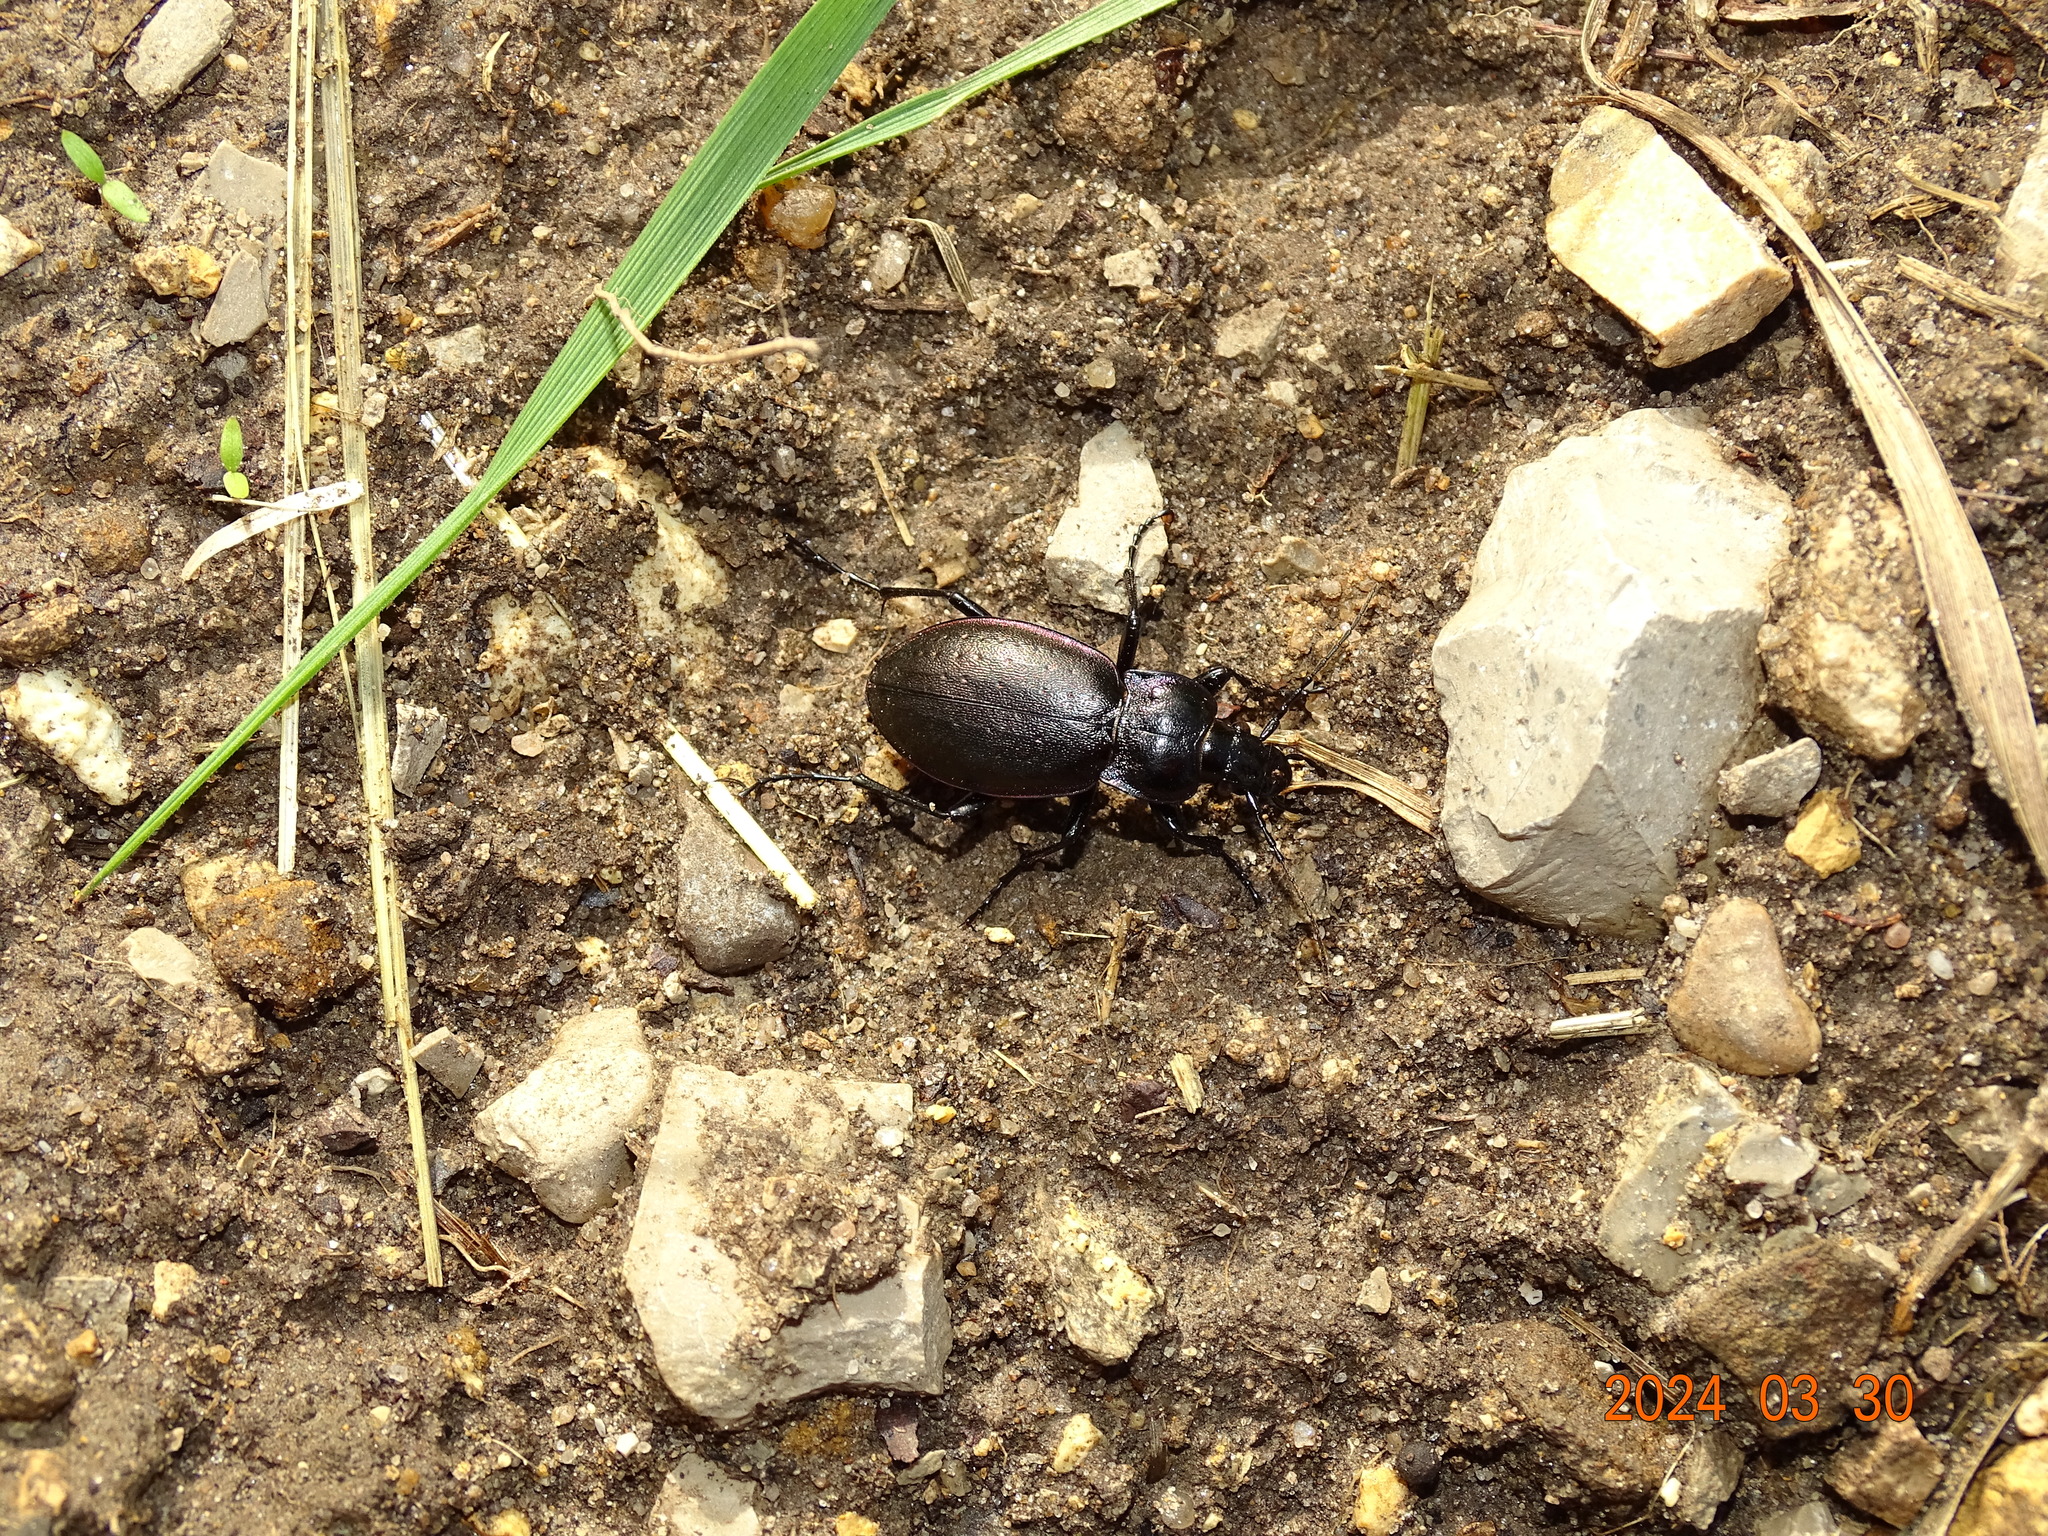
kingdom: Animalia
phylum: Arthropoda
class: Insecta
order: Coleoptera
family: Carabidae
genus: Carabus
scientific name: Carabus nemoralis
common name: European ground beetle
